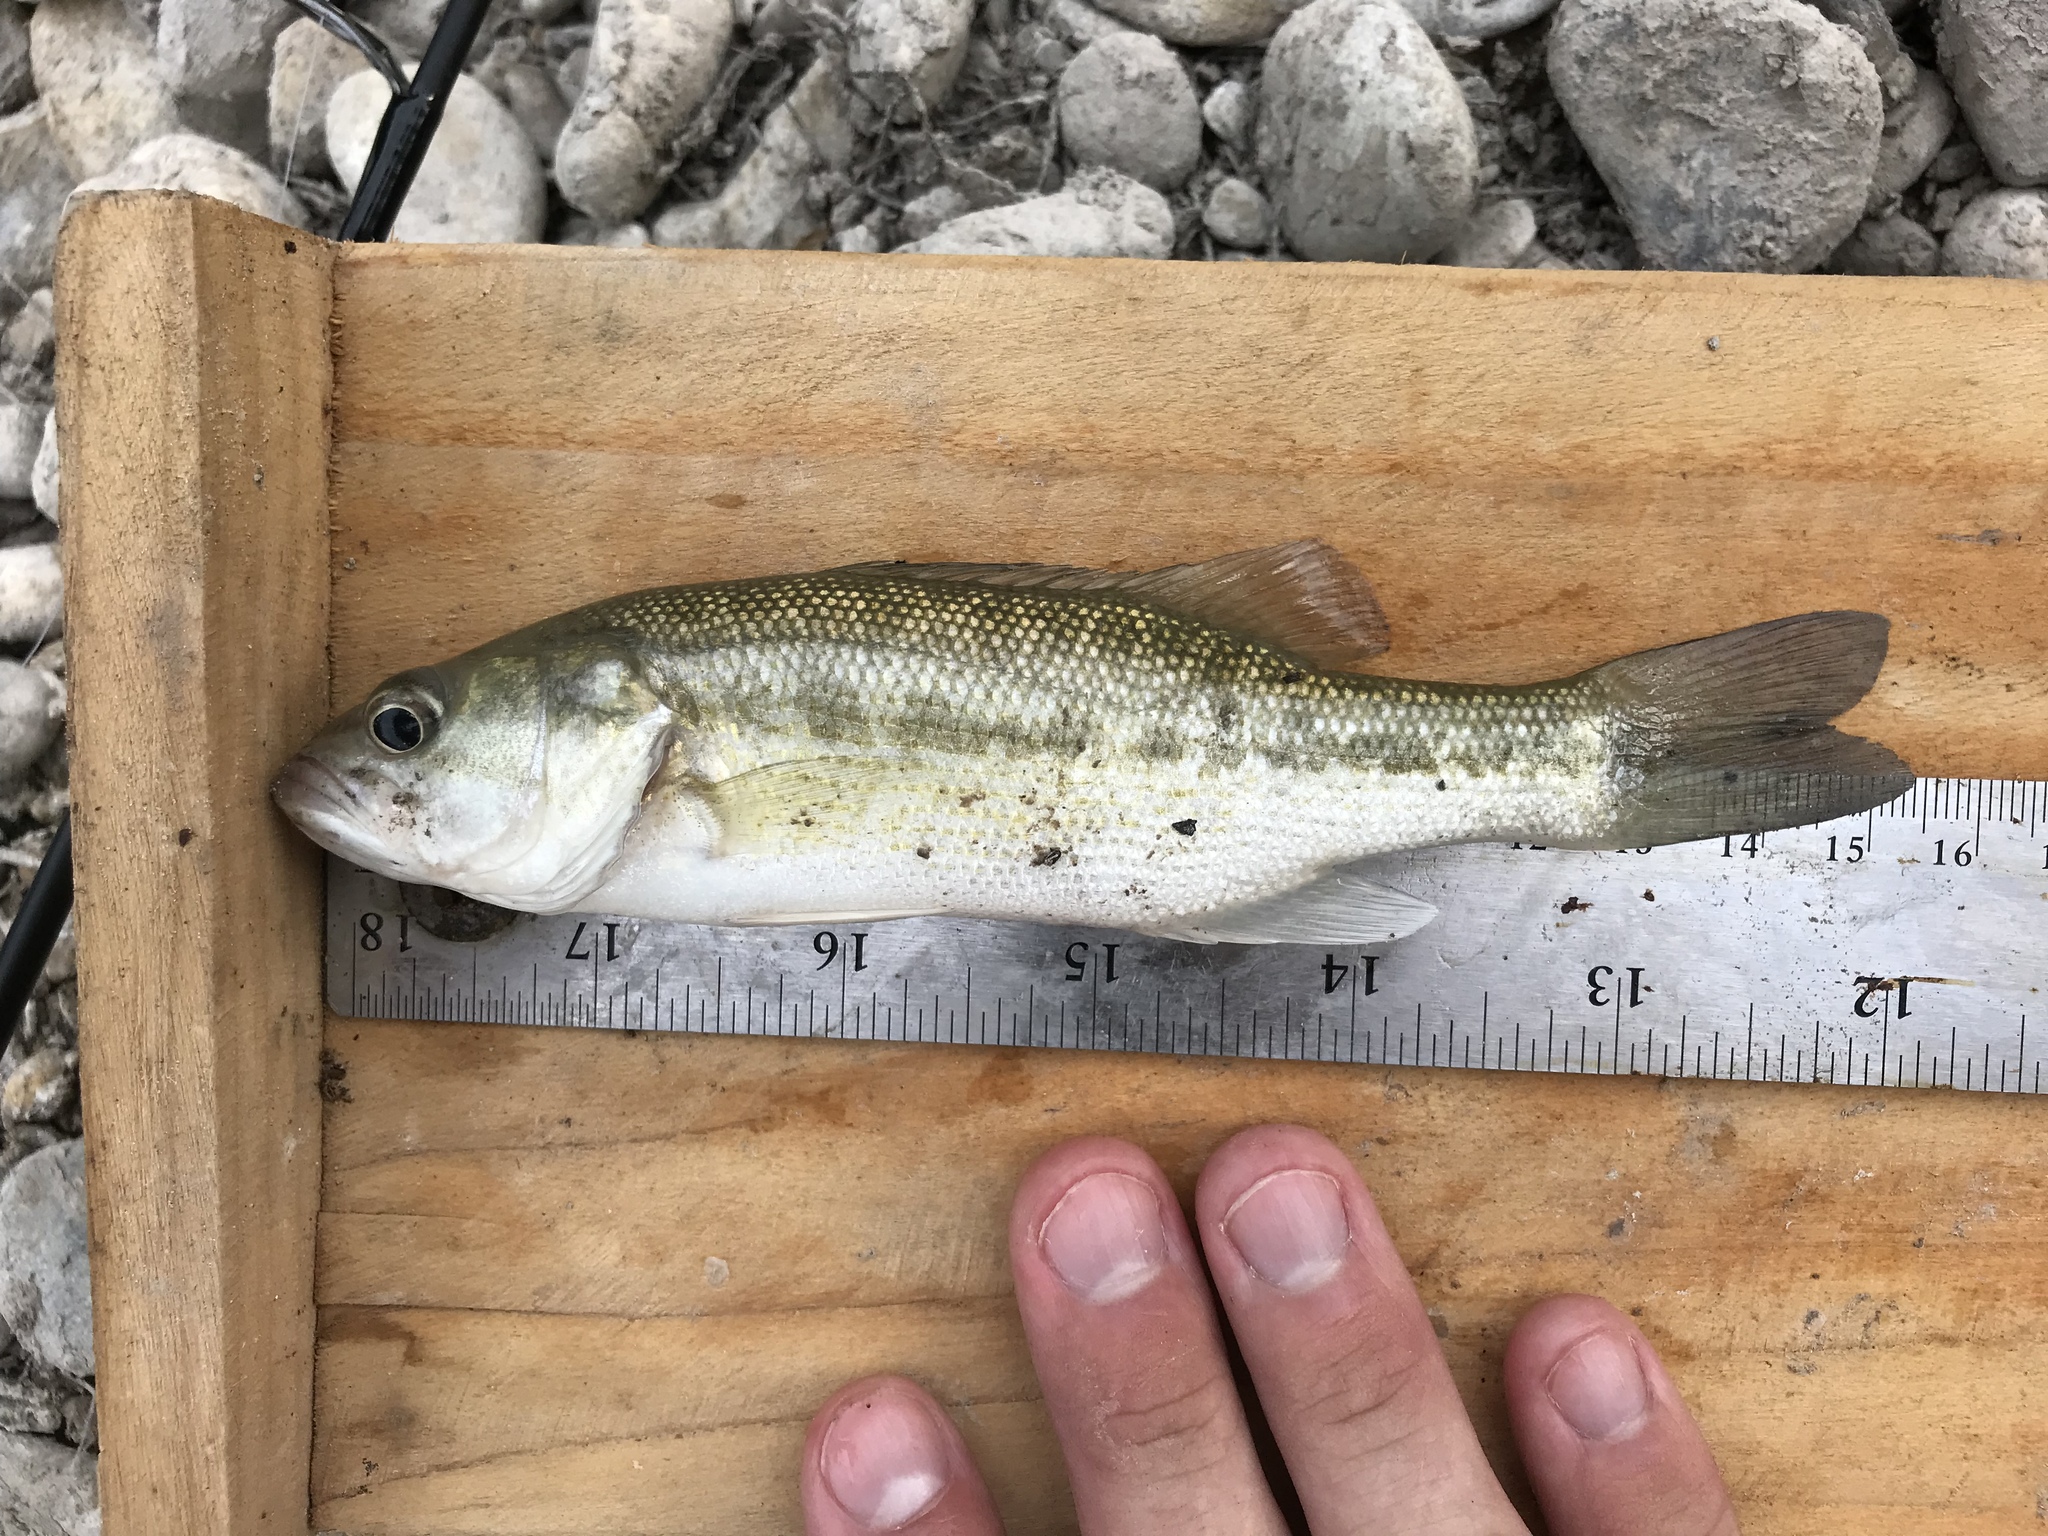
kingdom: Animalia
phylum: Chordata
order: Perciformes
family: Centrarchidae
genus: Micropterus
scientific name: Micropterus treculii
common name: Guadalupe bass
